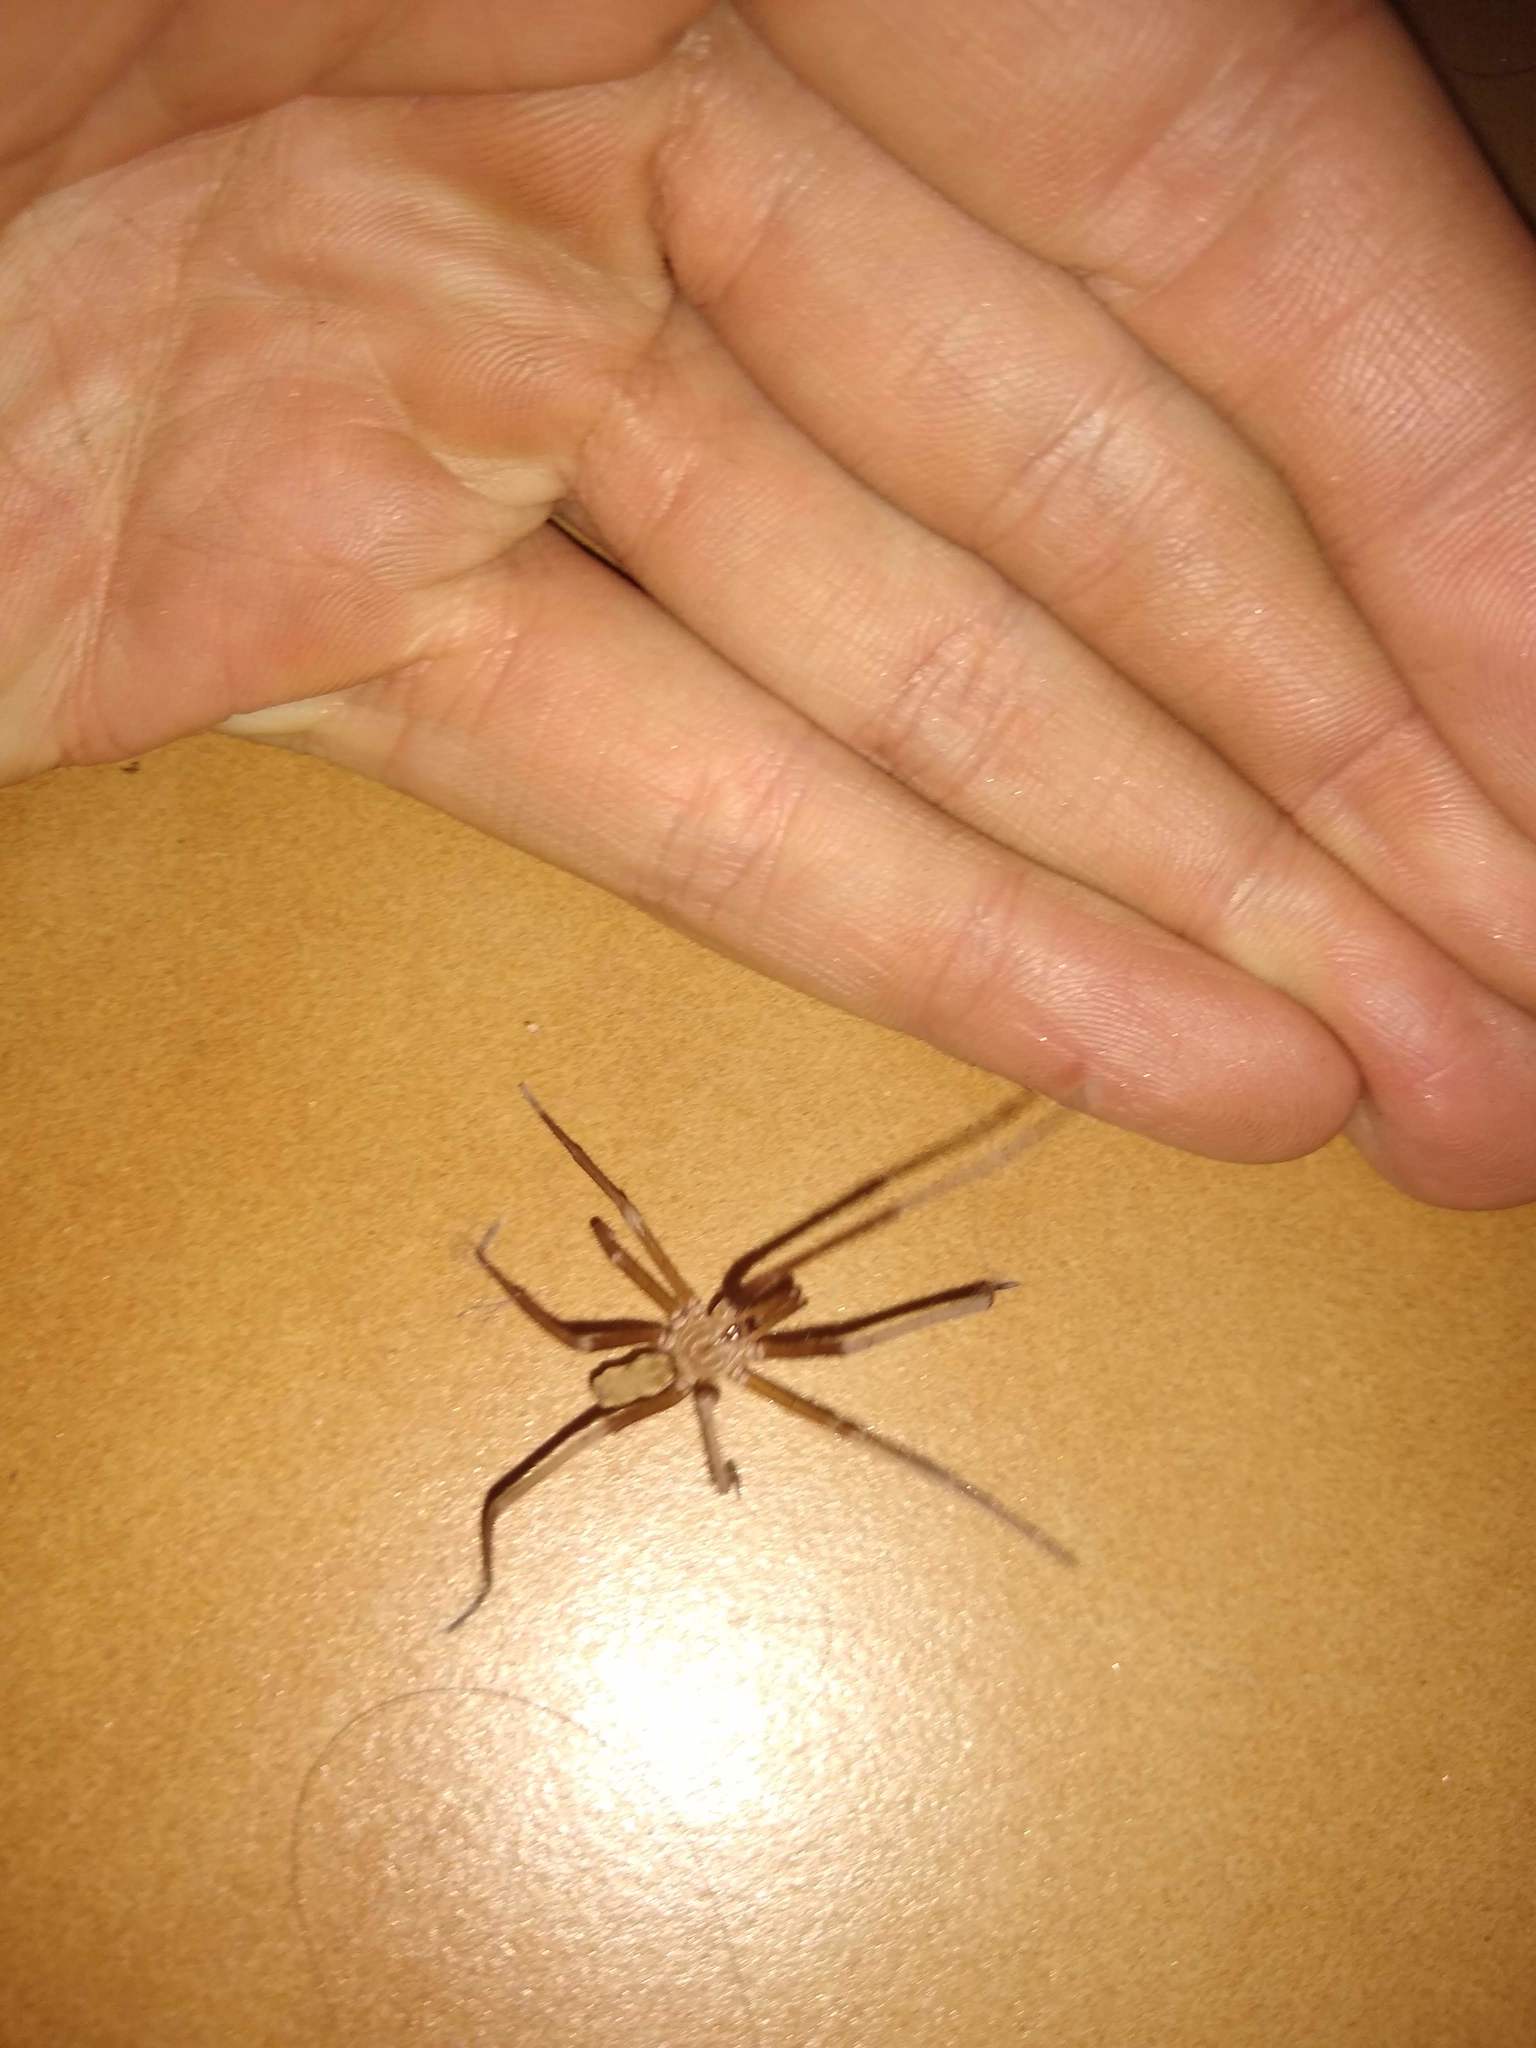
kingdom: Animalia
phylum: Arthropoda
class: Arachnida
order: Araneae
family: Filistatidae
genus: Kukulcania
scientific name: Kukulcania hibernalis
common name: Crevice weaver
